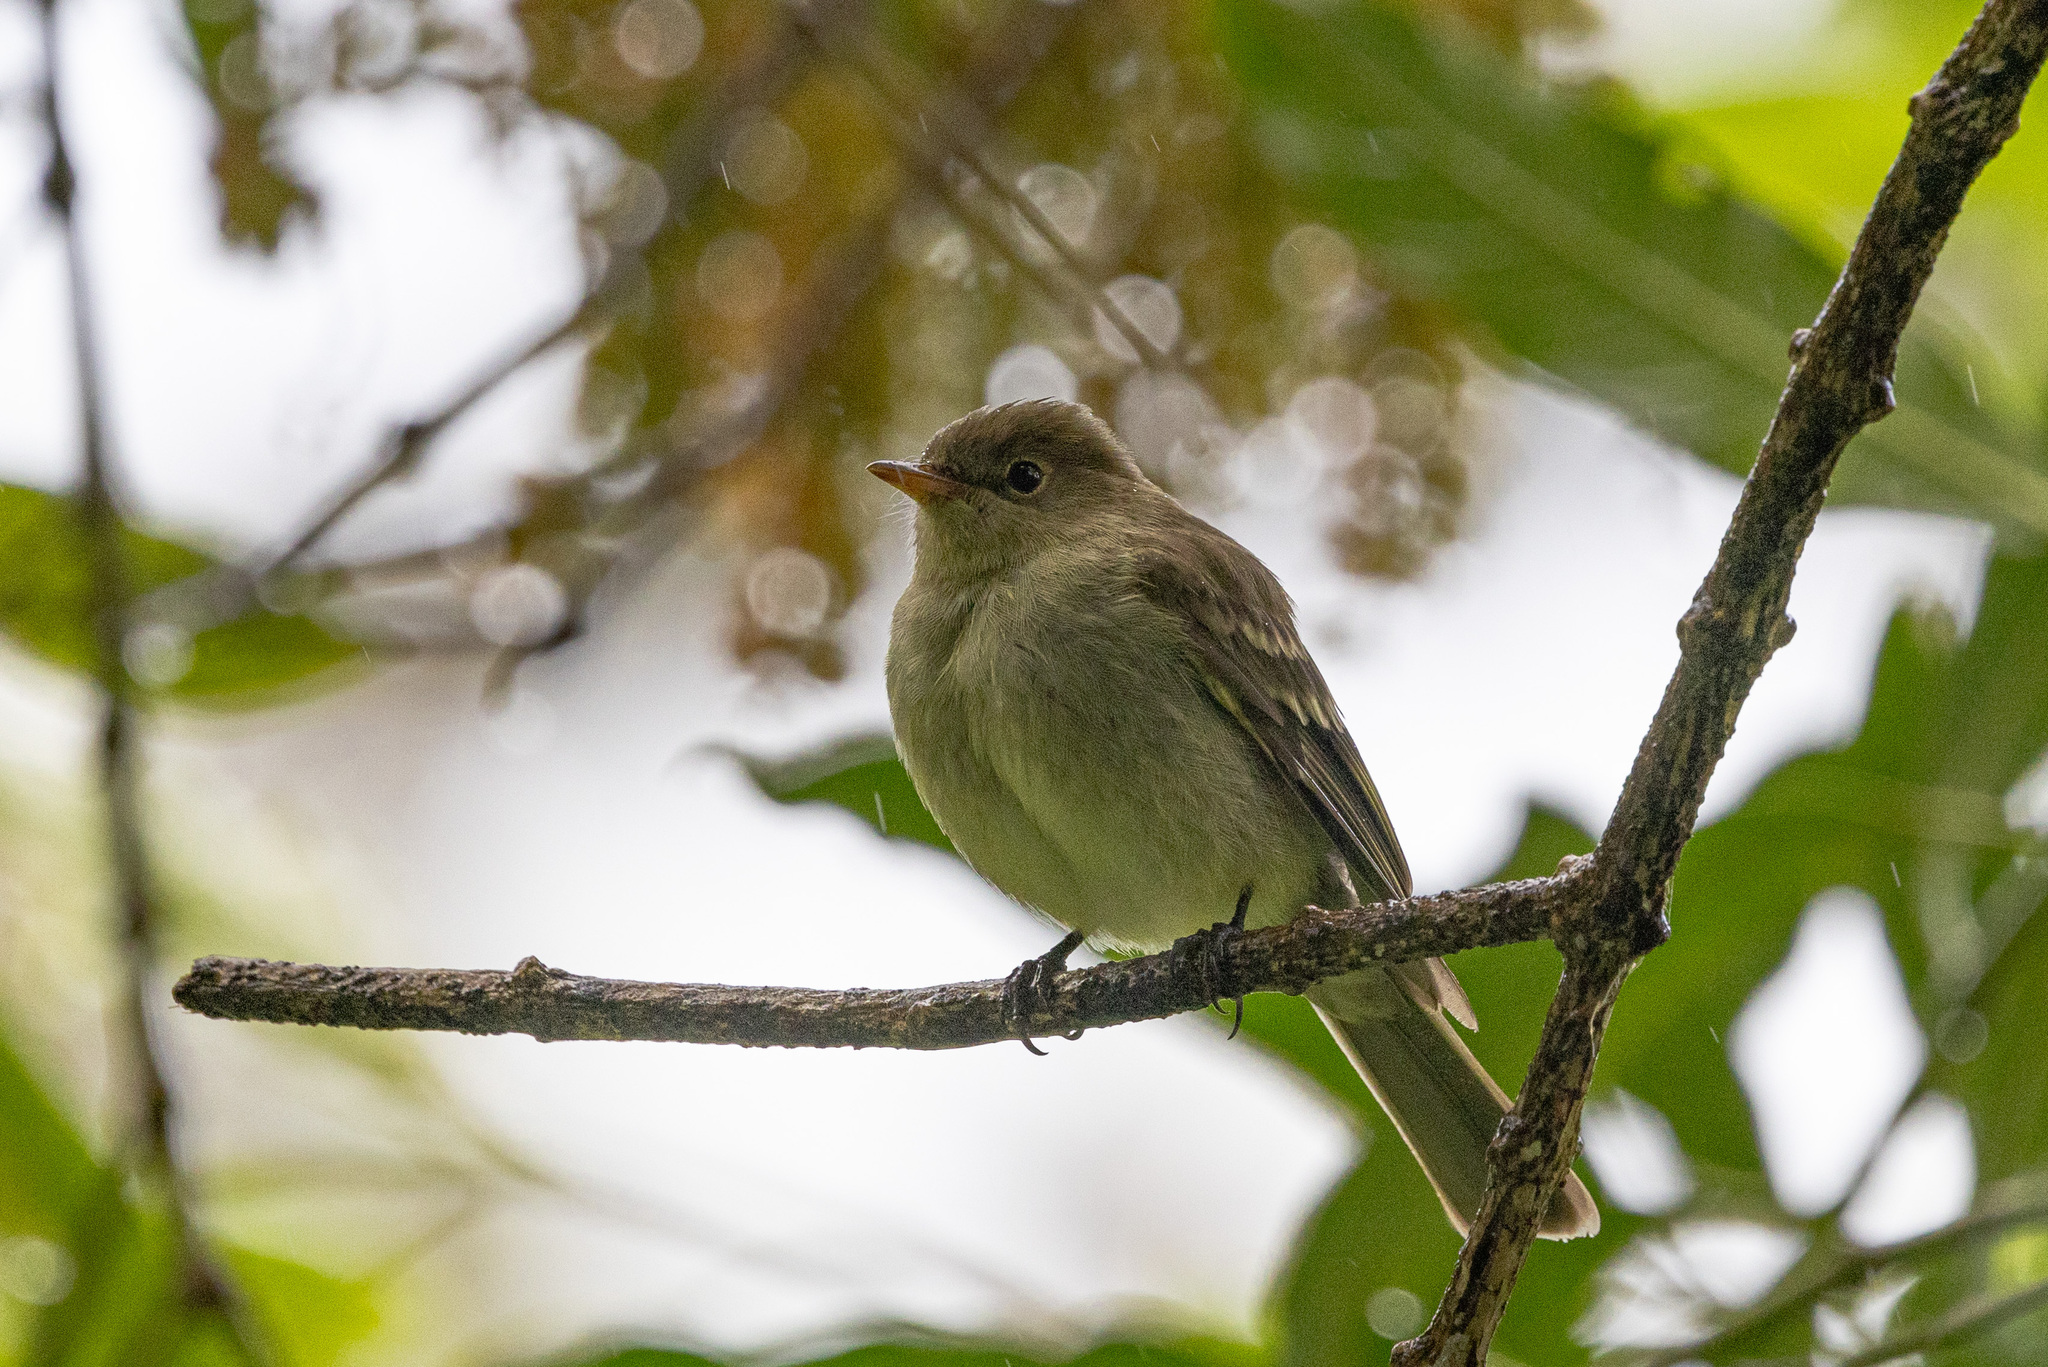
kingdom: Animalia
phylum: Chordata
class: Aves
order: Passeriformes
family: Tyrannidae
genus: Elaenia
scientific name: Elaenia frantzii
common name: Mountain elaenia
